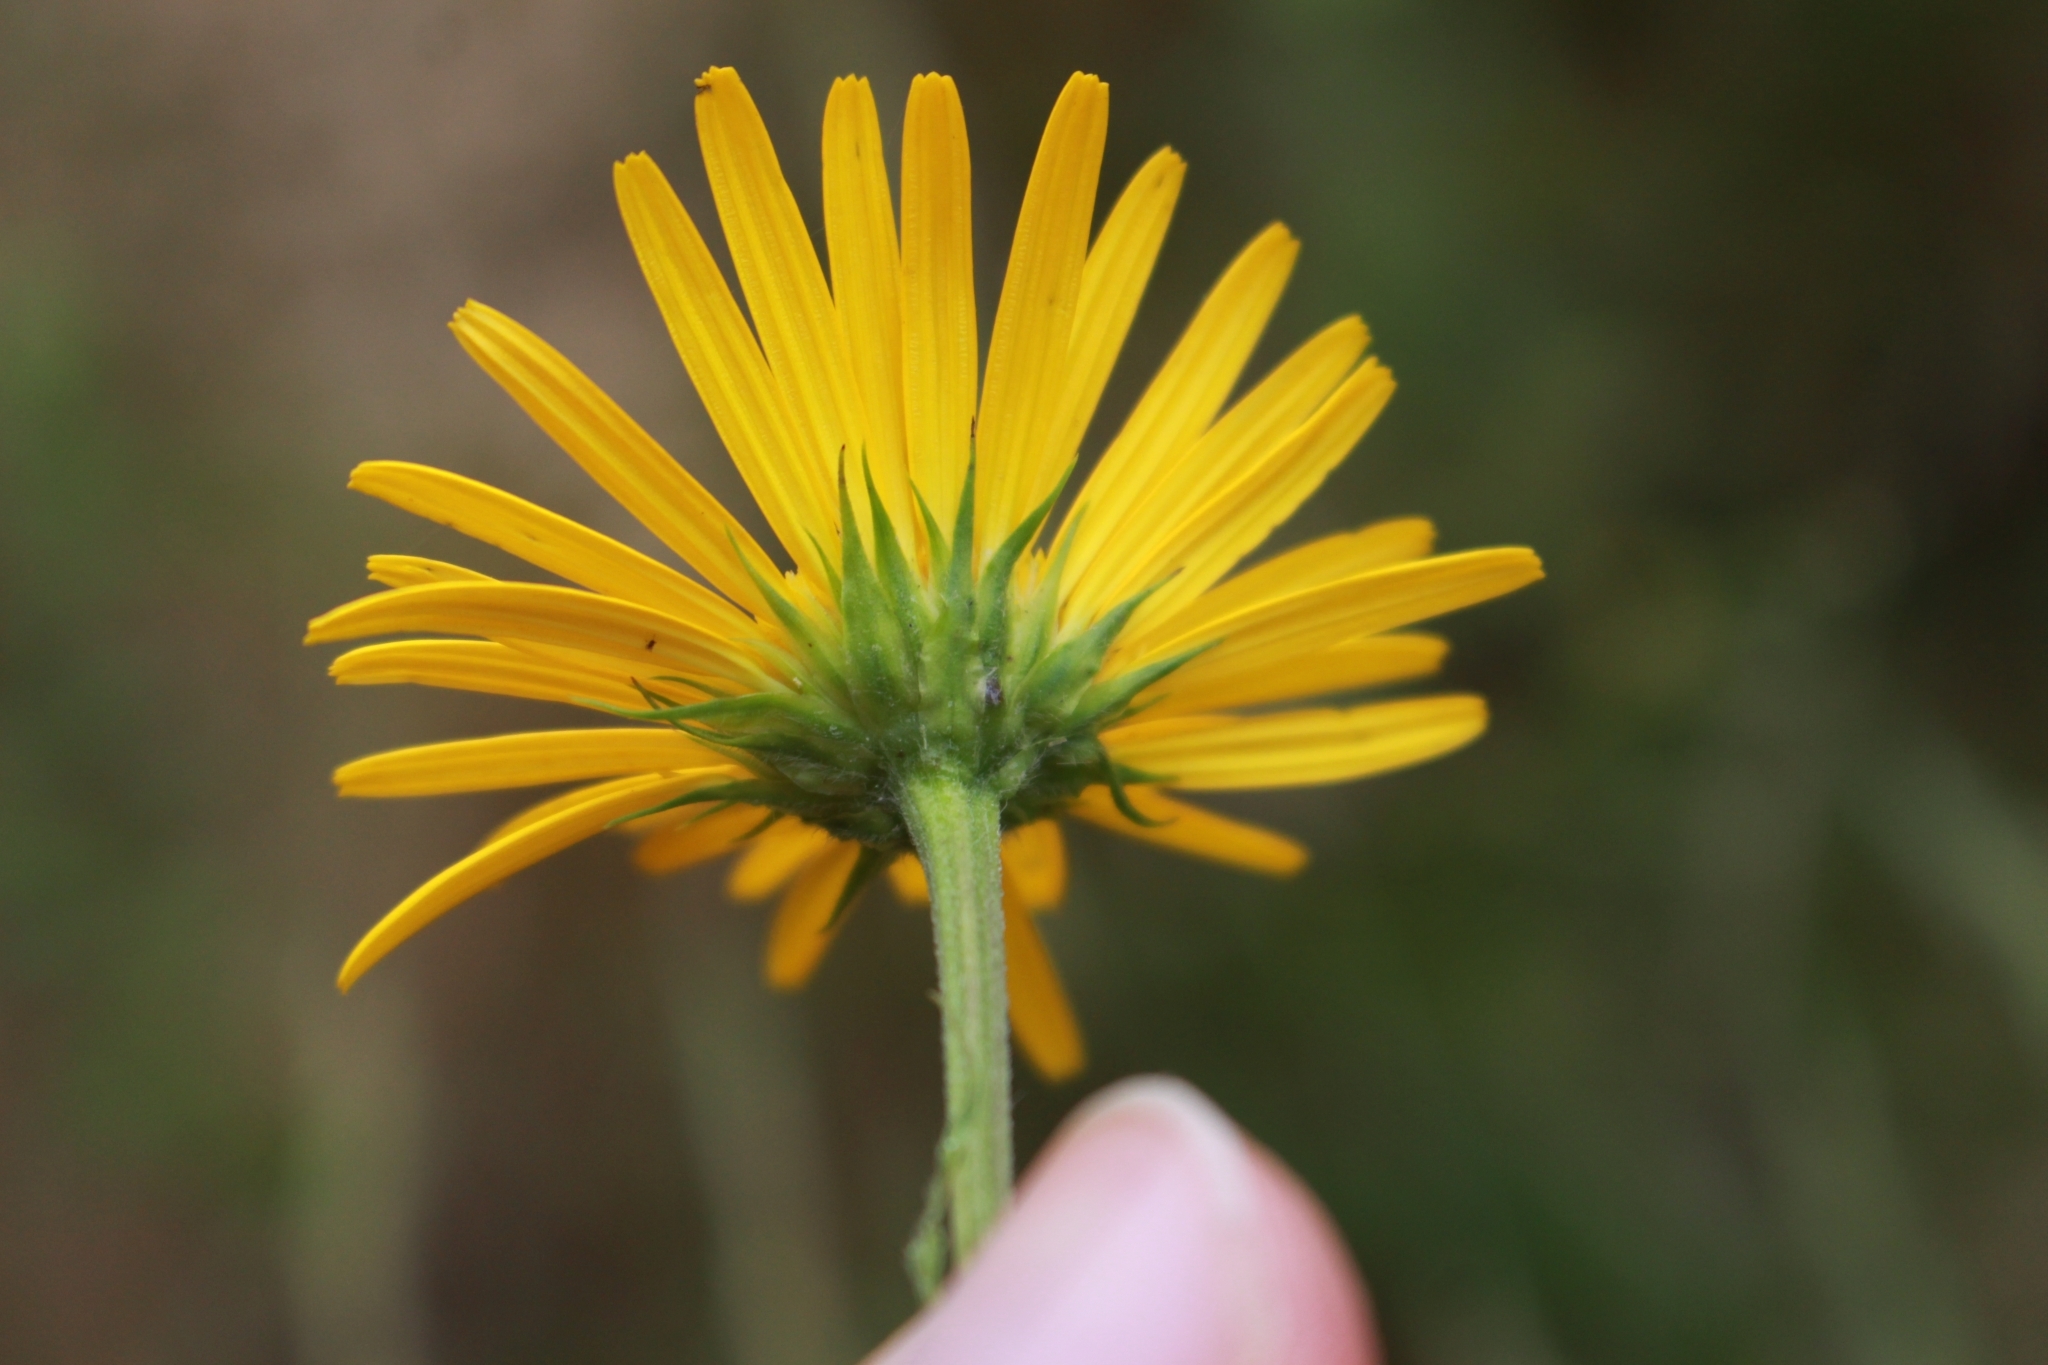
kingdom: Plantae
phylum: Tracheophyta
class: Magnoliopsida
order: Asterales
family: Asteraceae
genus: Buphthalmum
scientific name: Buphthalmum salicifolium
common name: Willow-leaved yellow-oxeye
